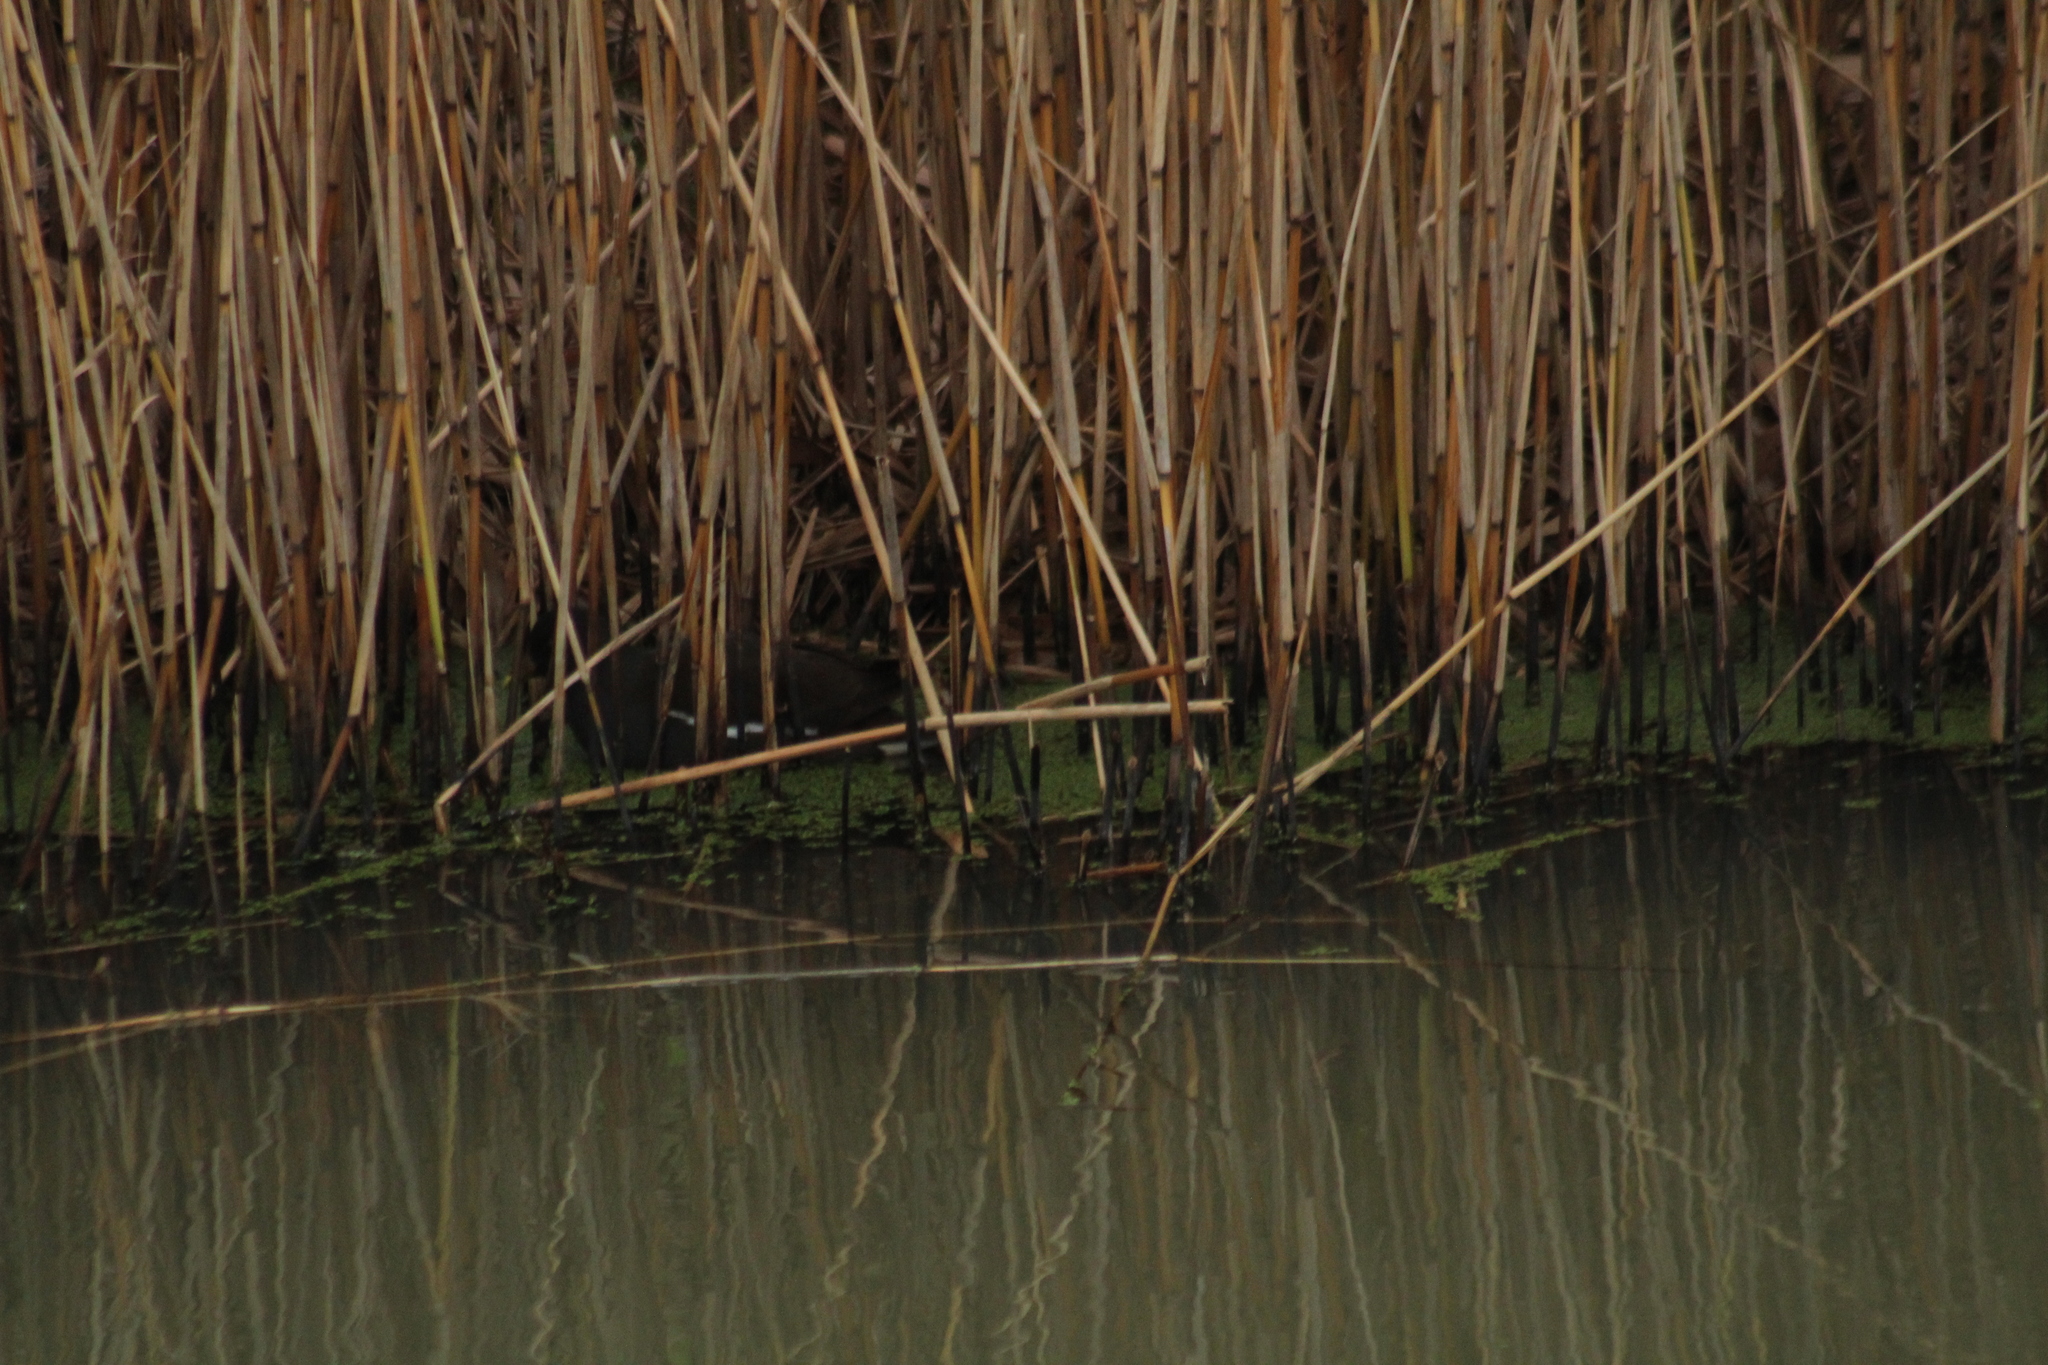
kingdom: Animalia
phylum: Chordata
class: Aves
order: Gruiformes
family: Rallidae
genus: Gallinula
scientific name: Gallinula chloropus
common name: Common moorhen
